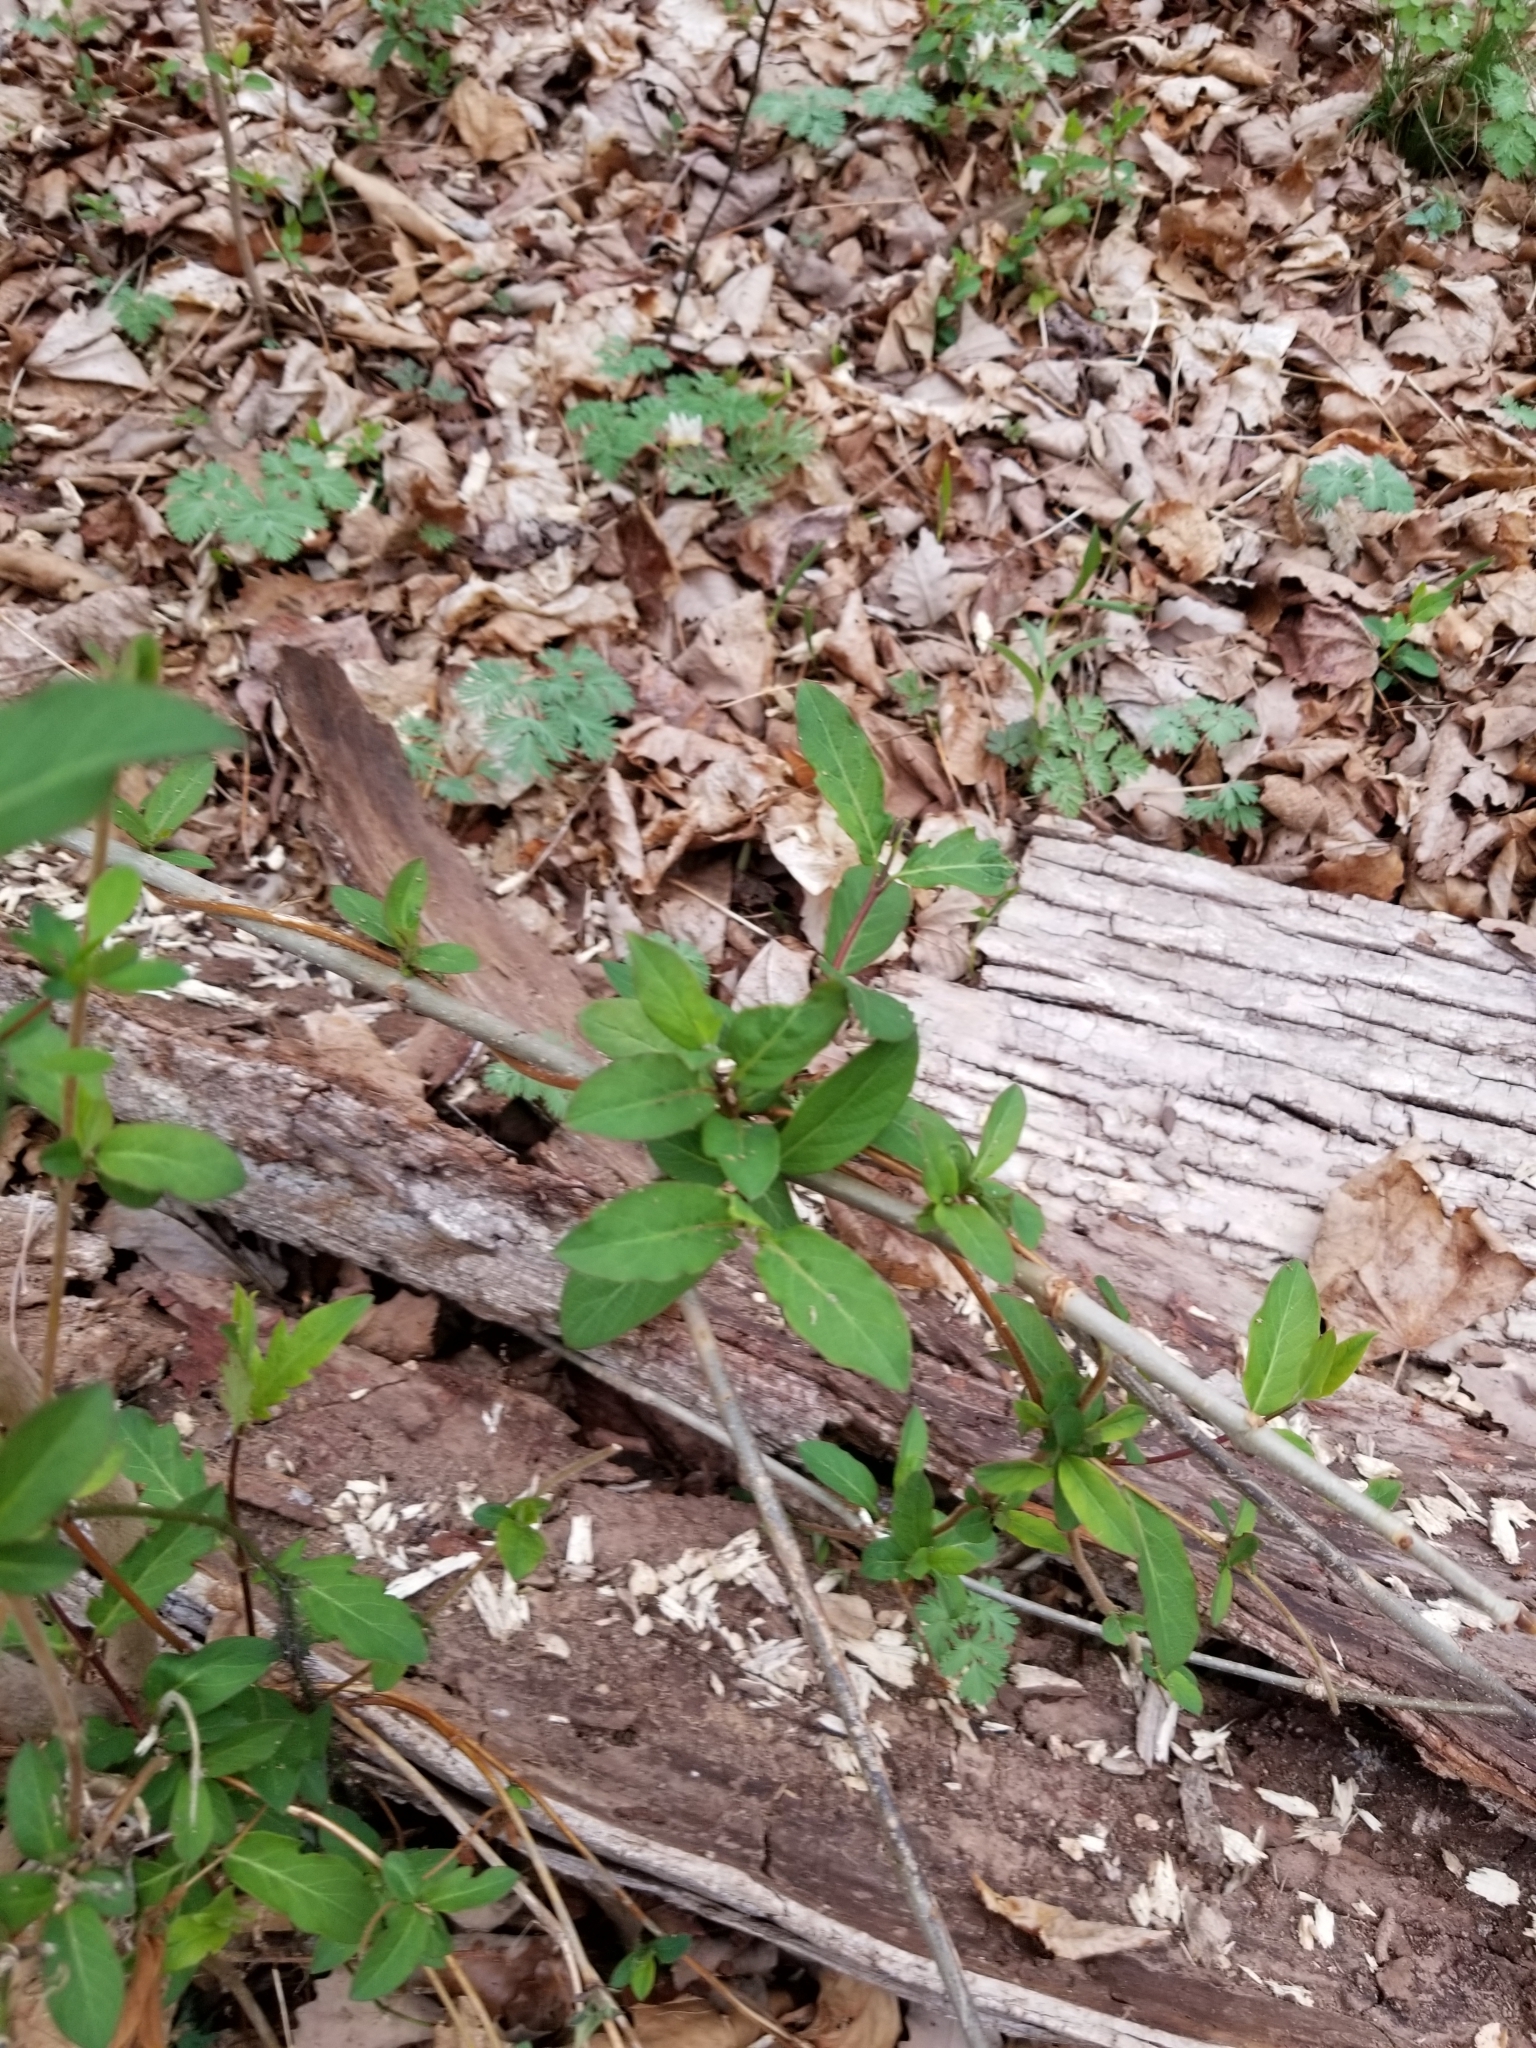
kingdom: Plantae
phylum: Tracheophyta
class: Magnoliopsida
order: Dipsacales
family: Caprifoliaceae
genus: Lonicera
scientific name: Lonicera japonica
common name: Japanese honeysuckle
